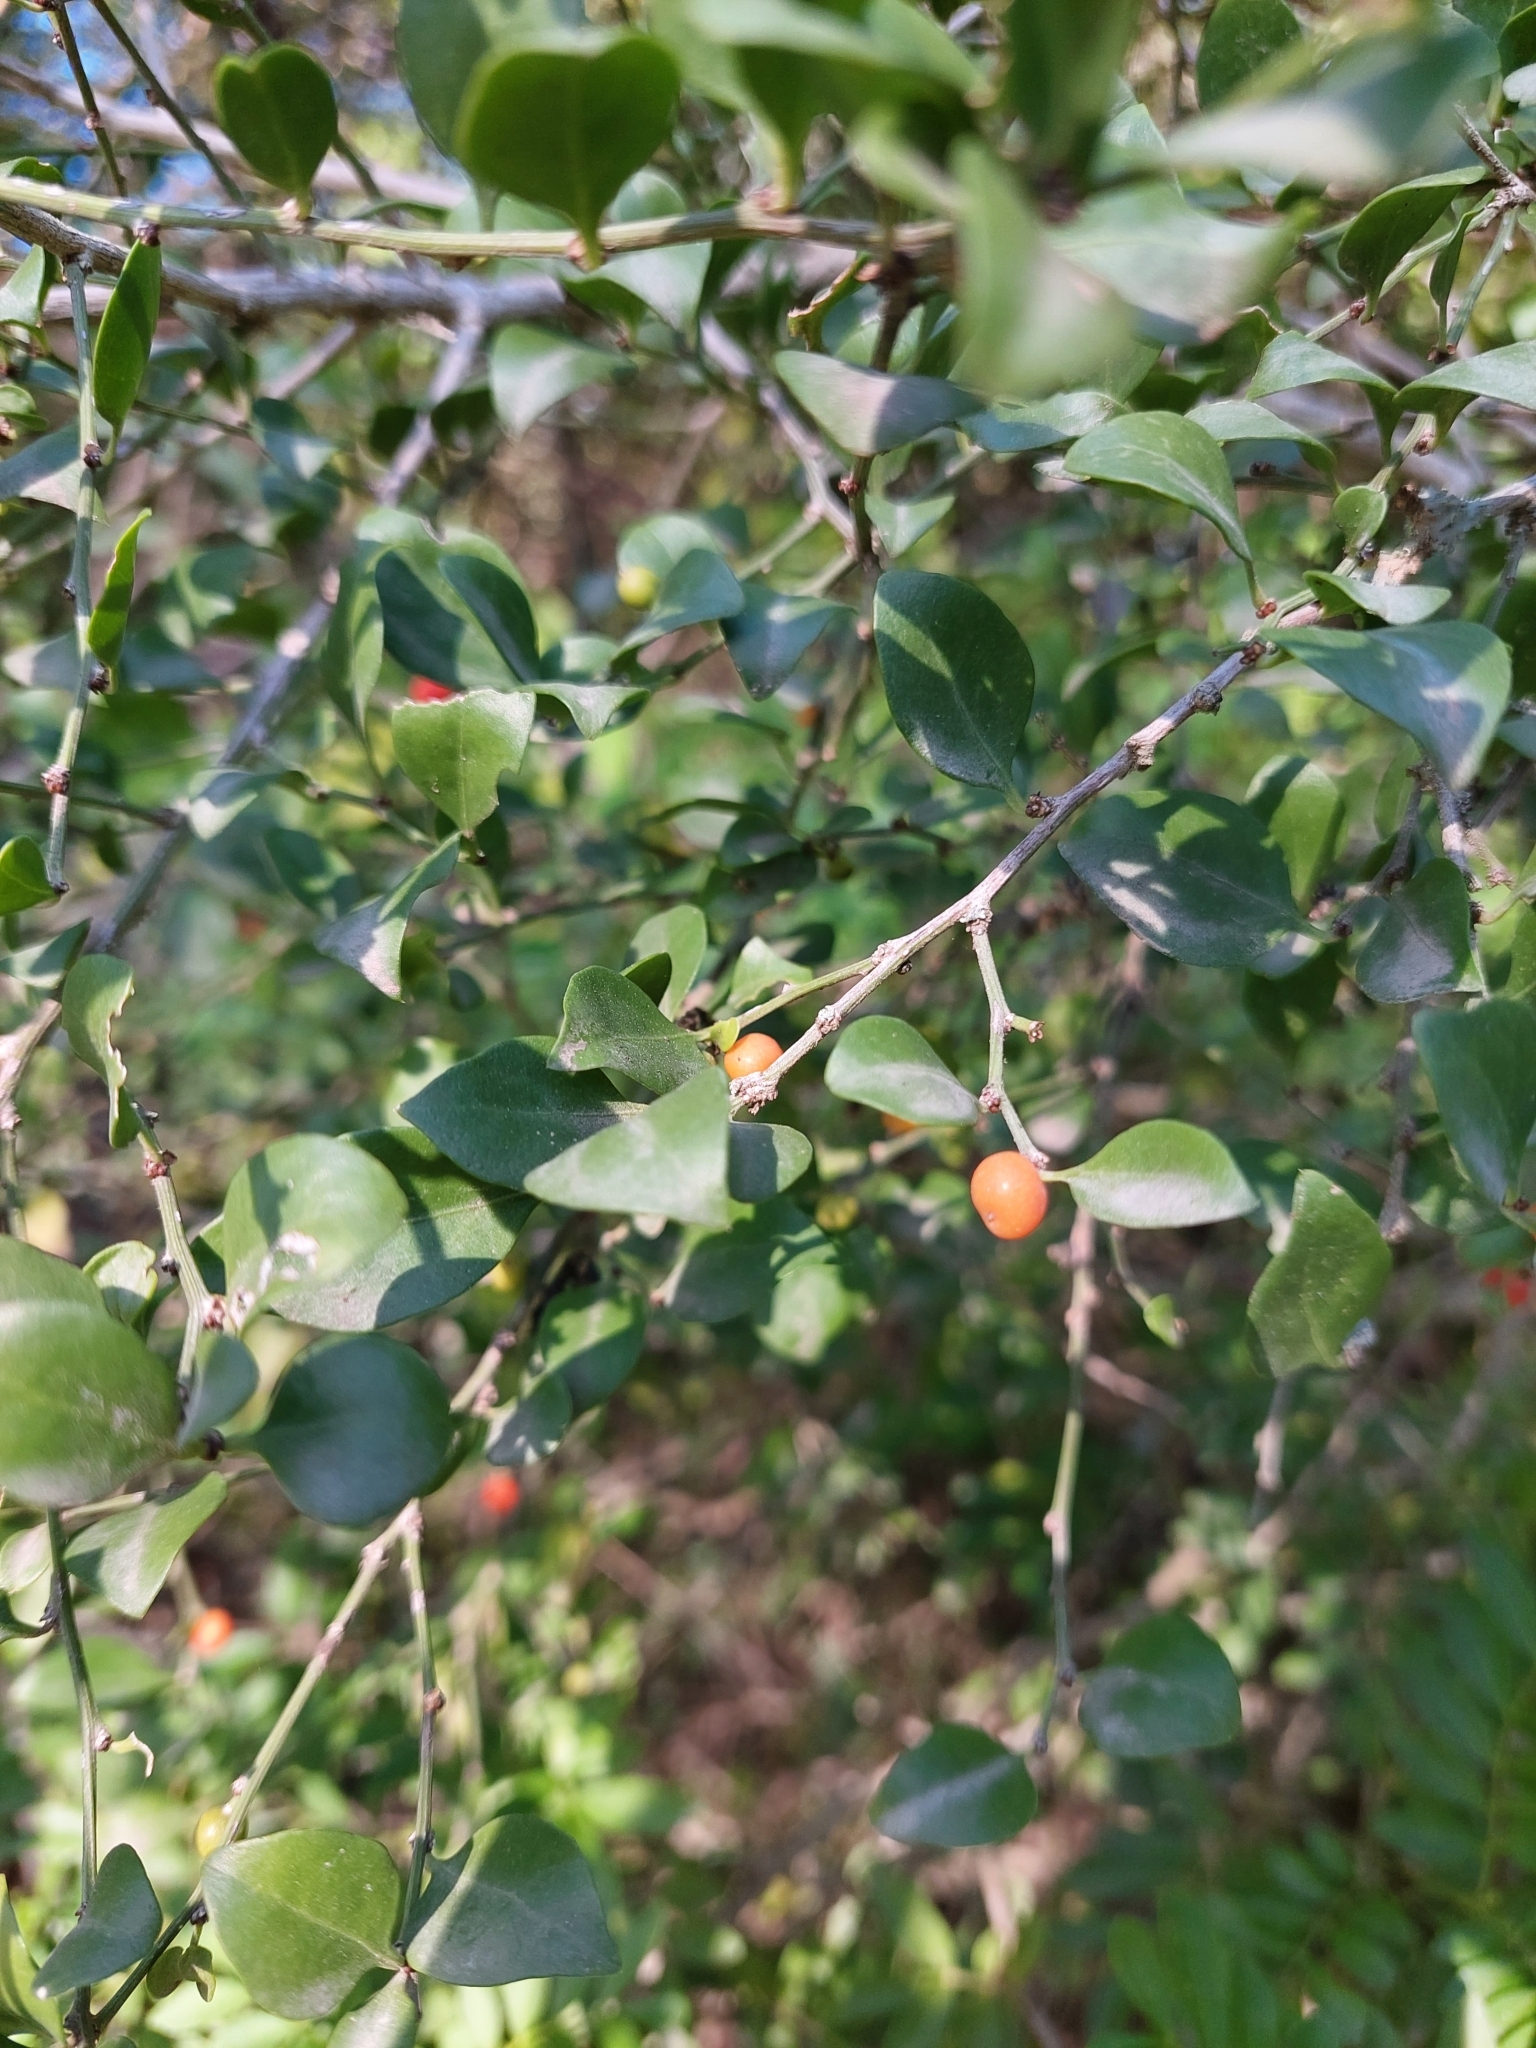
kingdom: Plantae
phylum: Tracheophyta
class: Magnoliopsida
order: Celastrales
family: Celastraceae
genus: Schaefferia
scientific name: Schaefferia argentinensis
